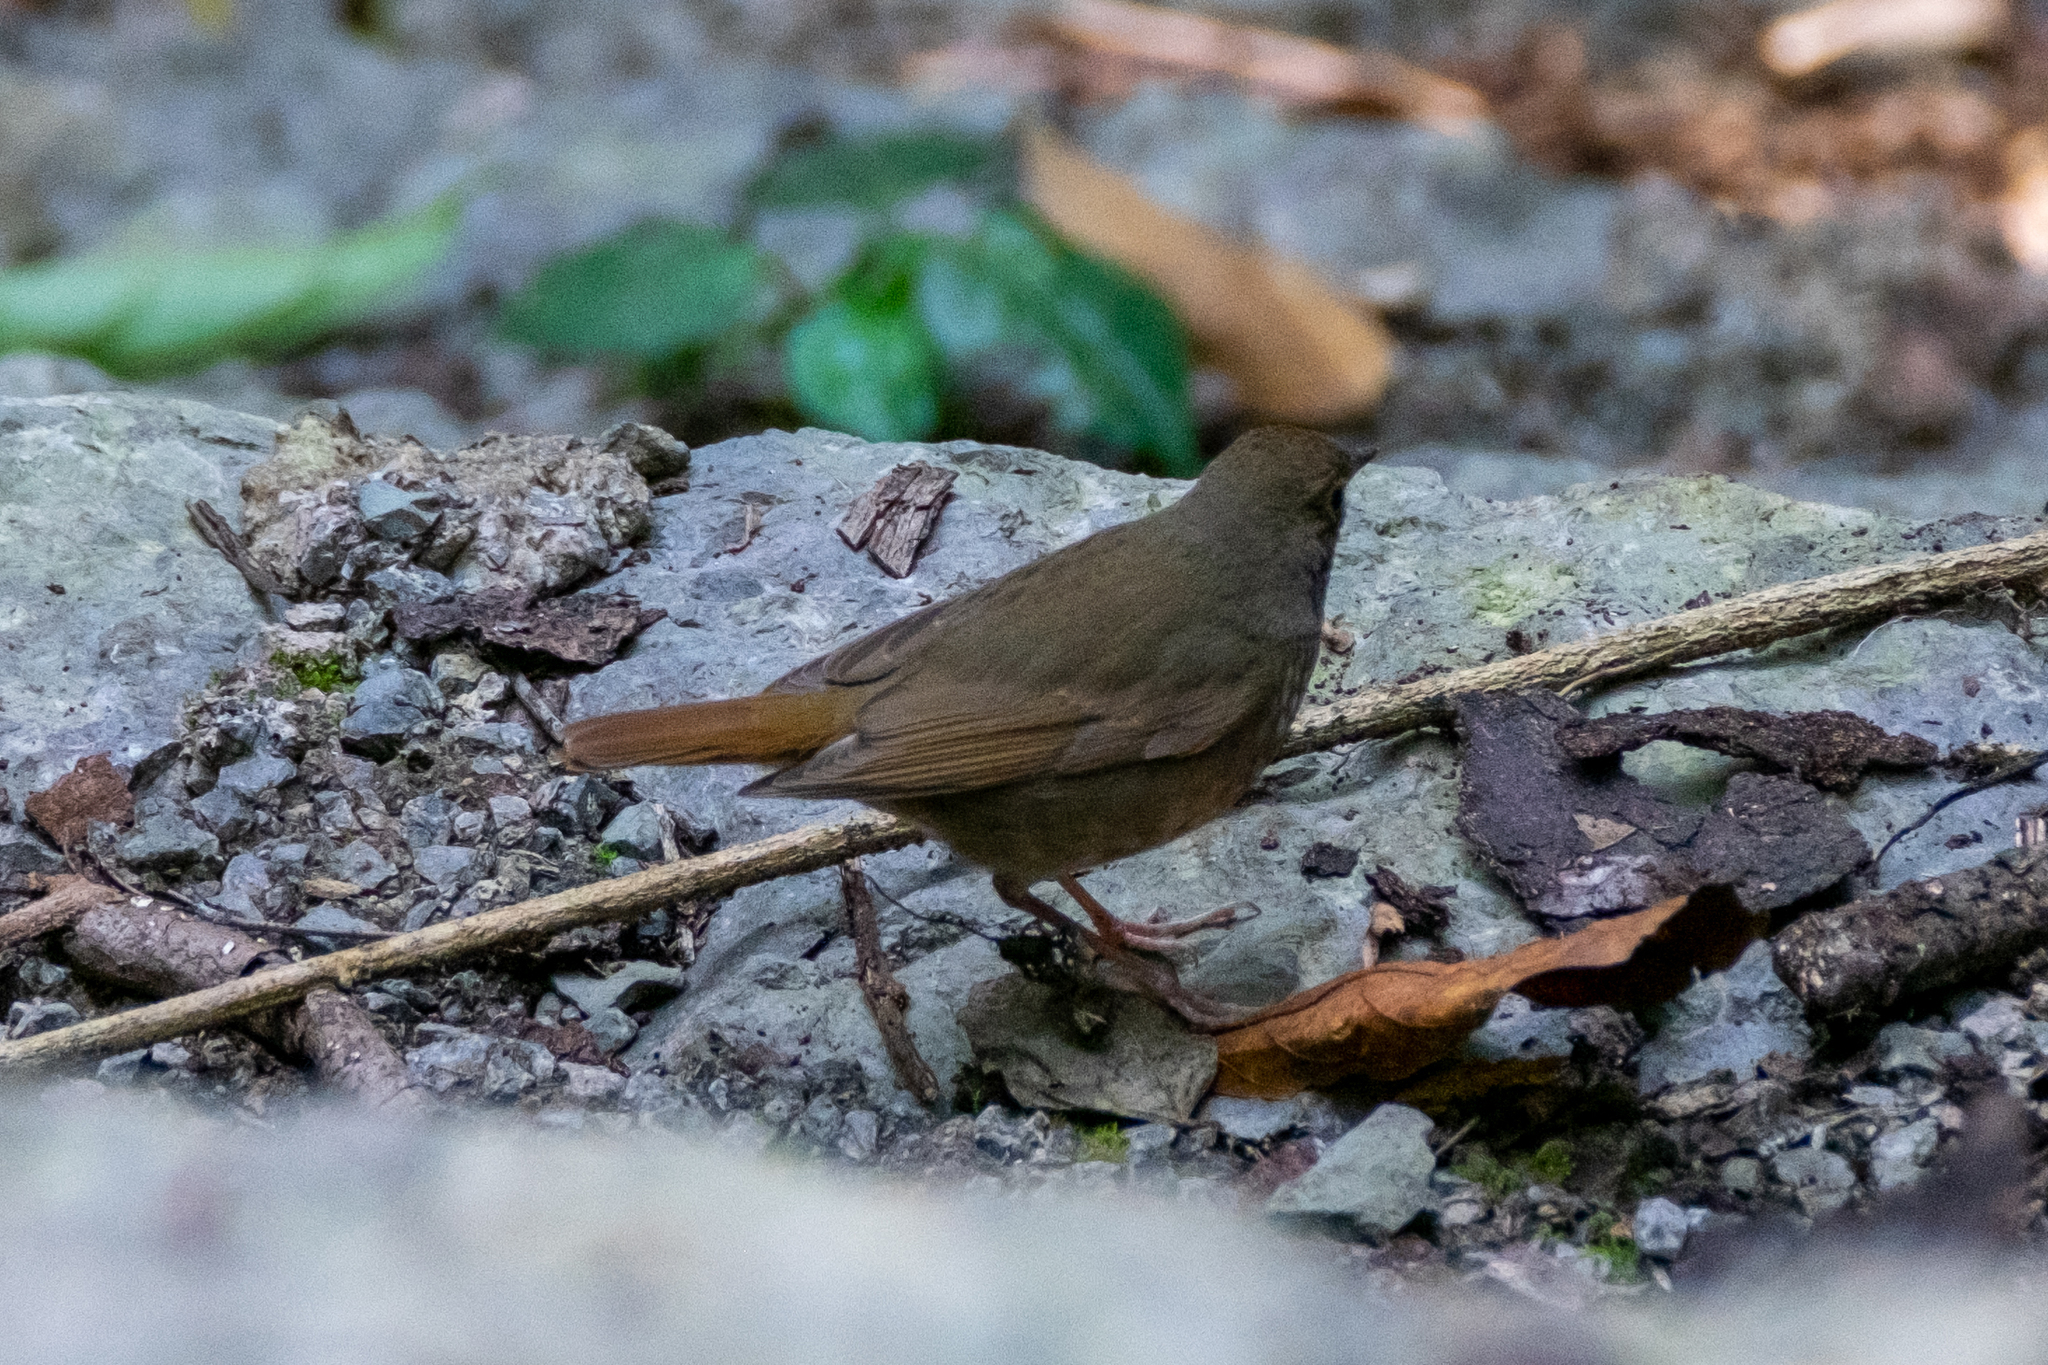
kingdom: Animalia
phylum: Chordata
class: Aves
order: Passeriformes
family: Muscicapidae
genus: Larvivora
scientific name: Larvivora sibilans
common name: Rufous-tailed robin
